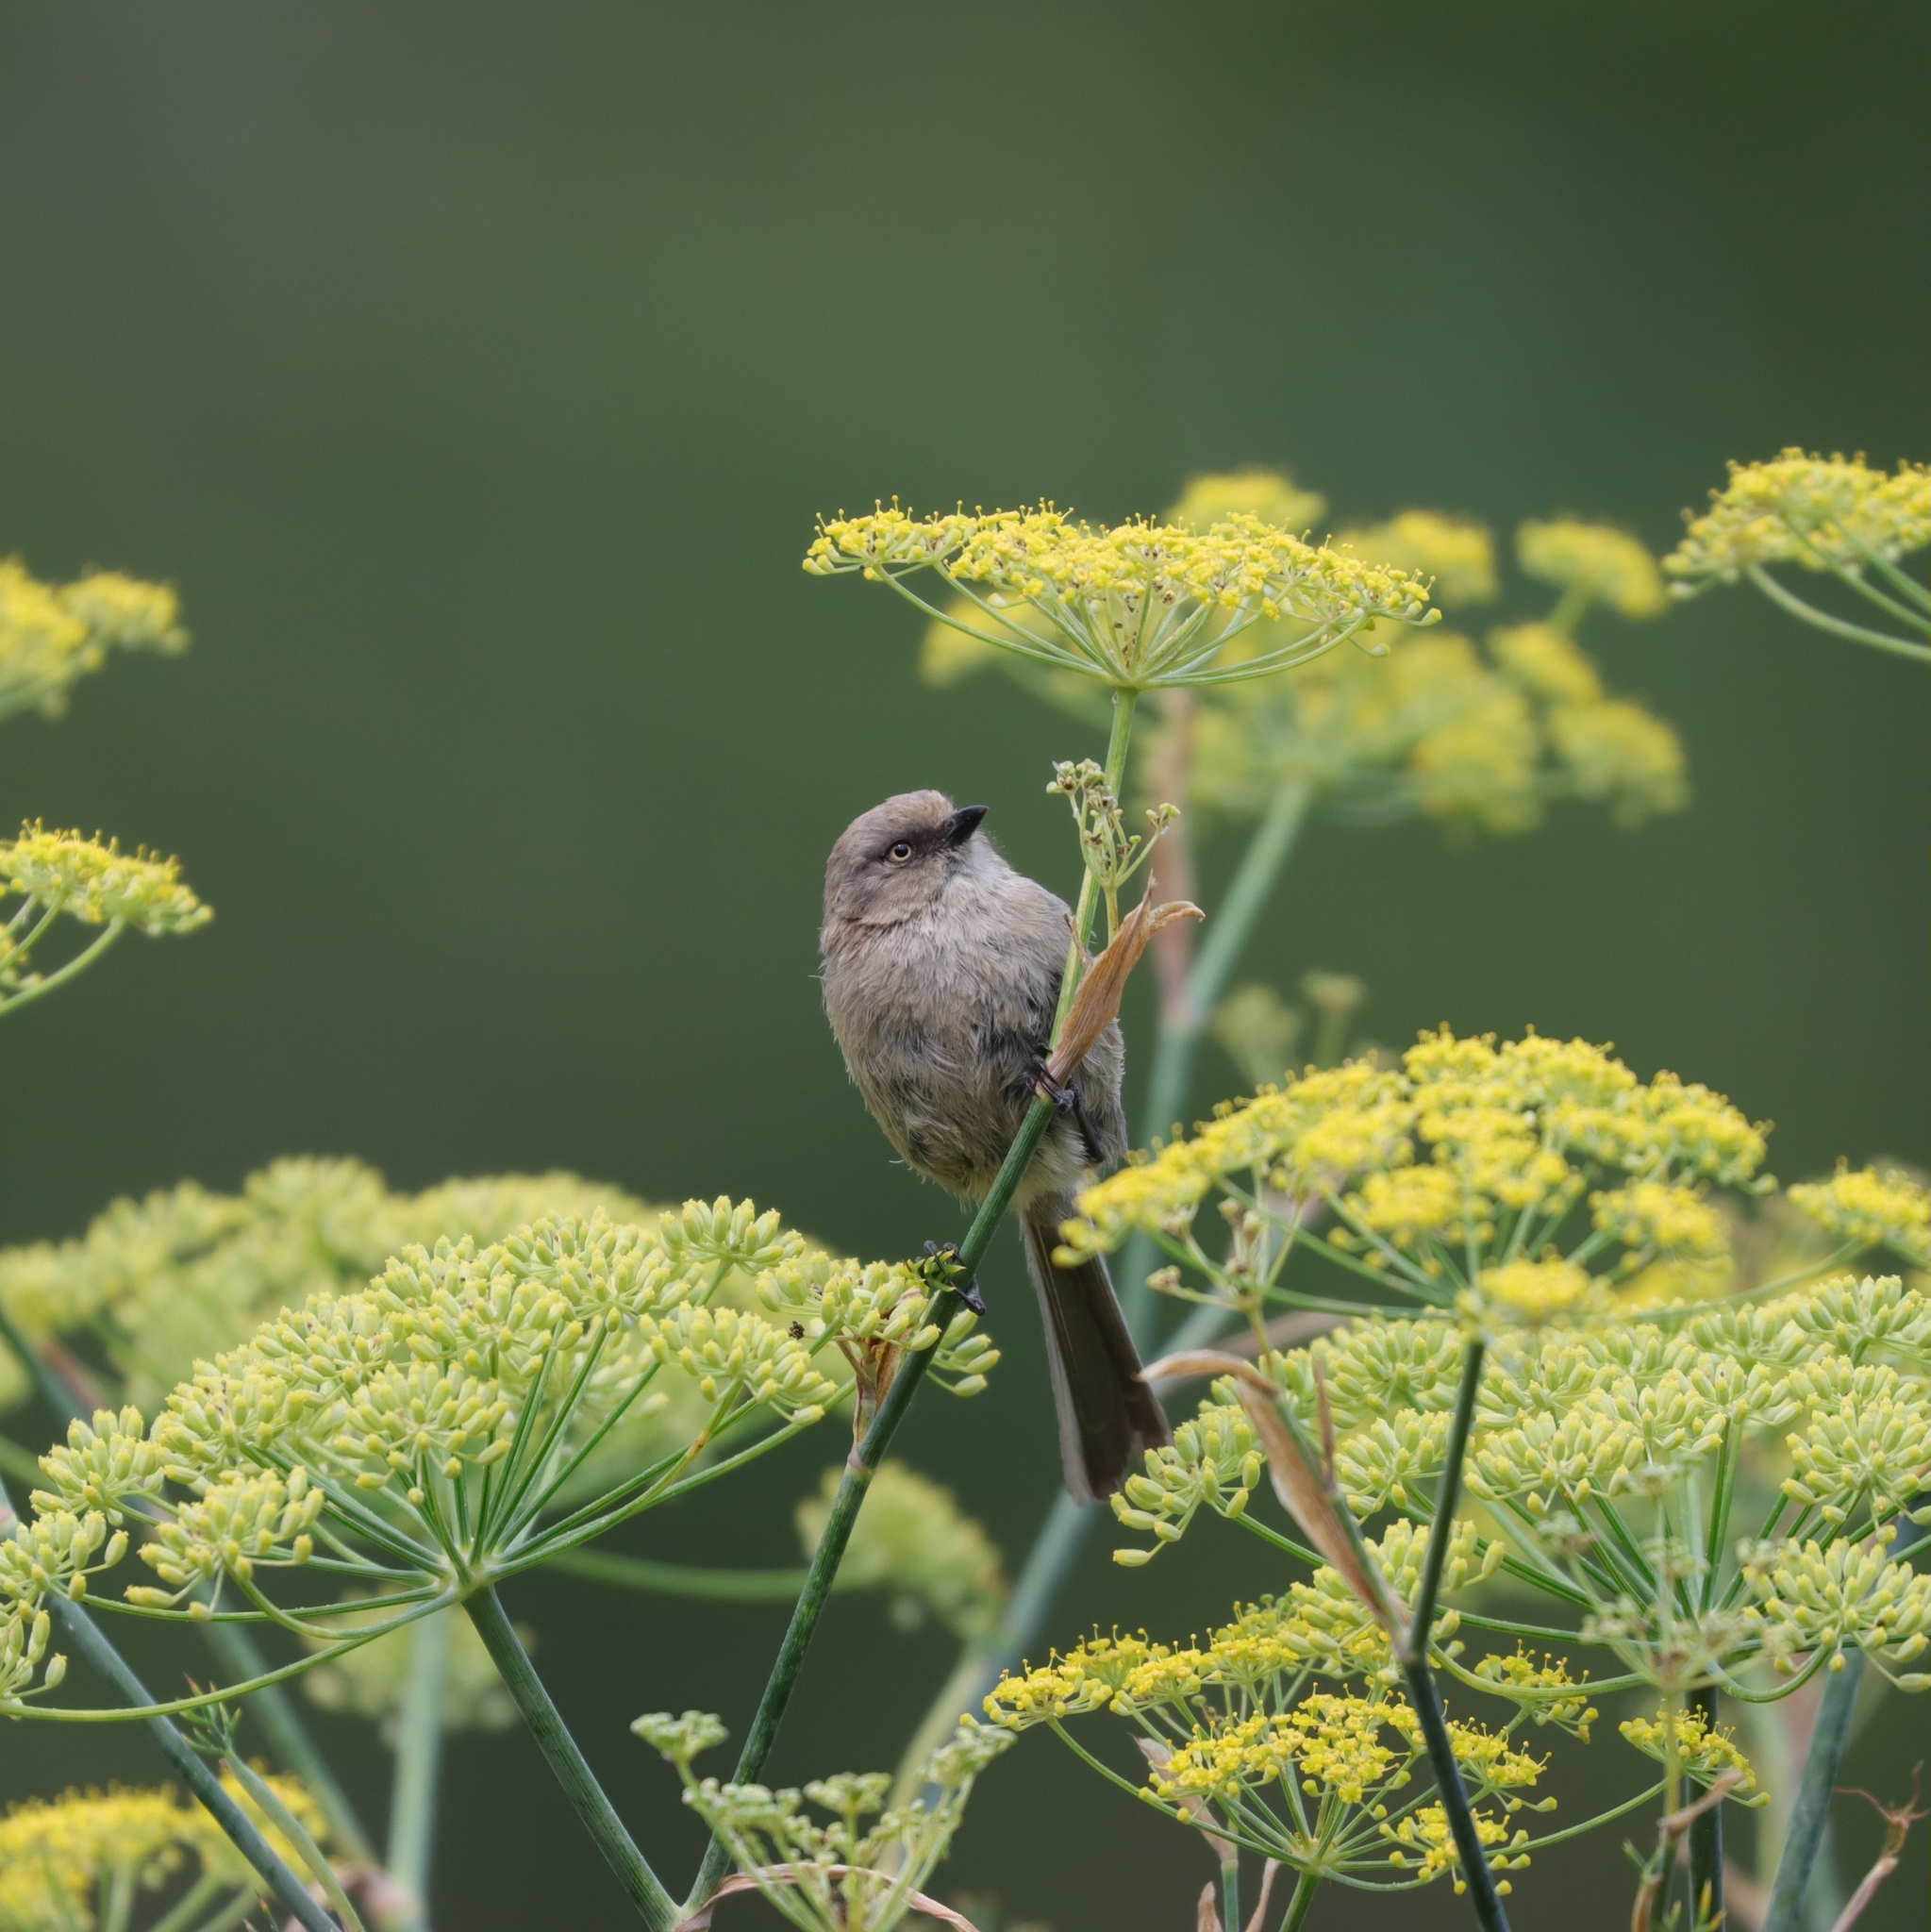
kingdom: Animalia
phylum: Chordata
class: Aves
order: Passeriformes
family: Aegithalidae
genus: Psaltriparus
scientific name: Psaltriparus minimus
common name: American bushtit
